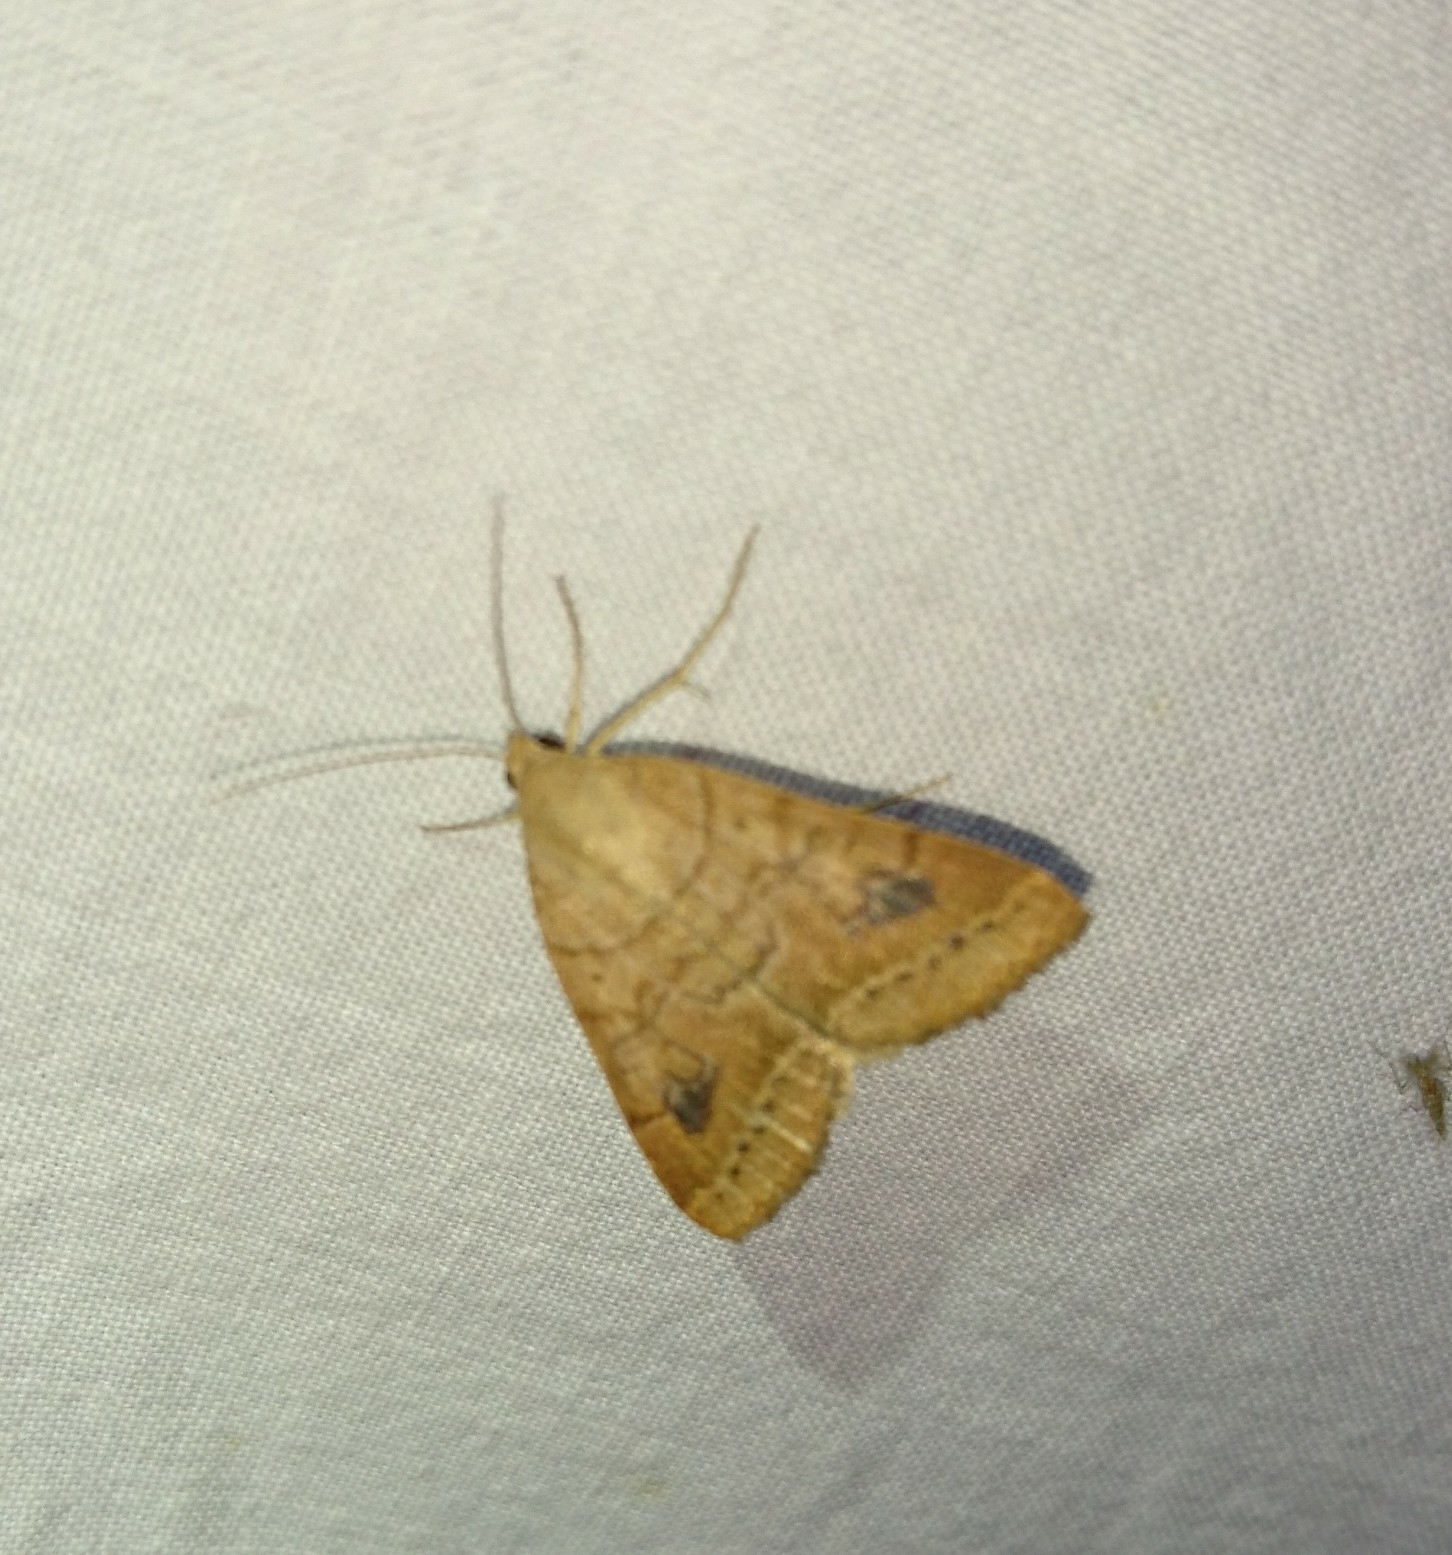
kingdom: Animalia
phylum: Arthropoda
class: Insecta
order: Lepidoptera
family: Erebidae
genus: Caenurgia
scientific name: Caenurgia chloropha
